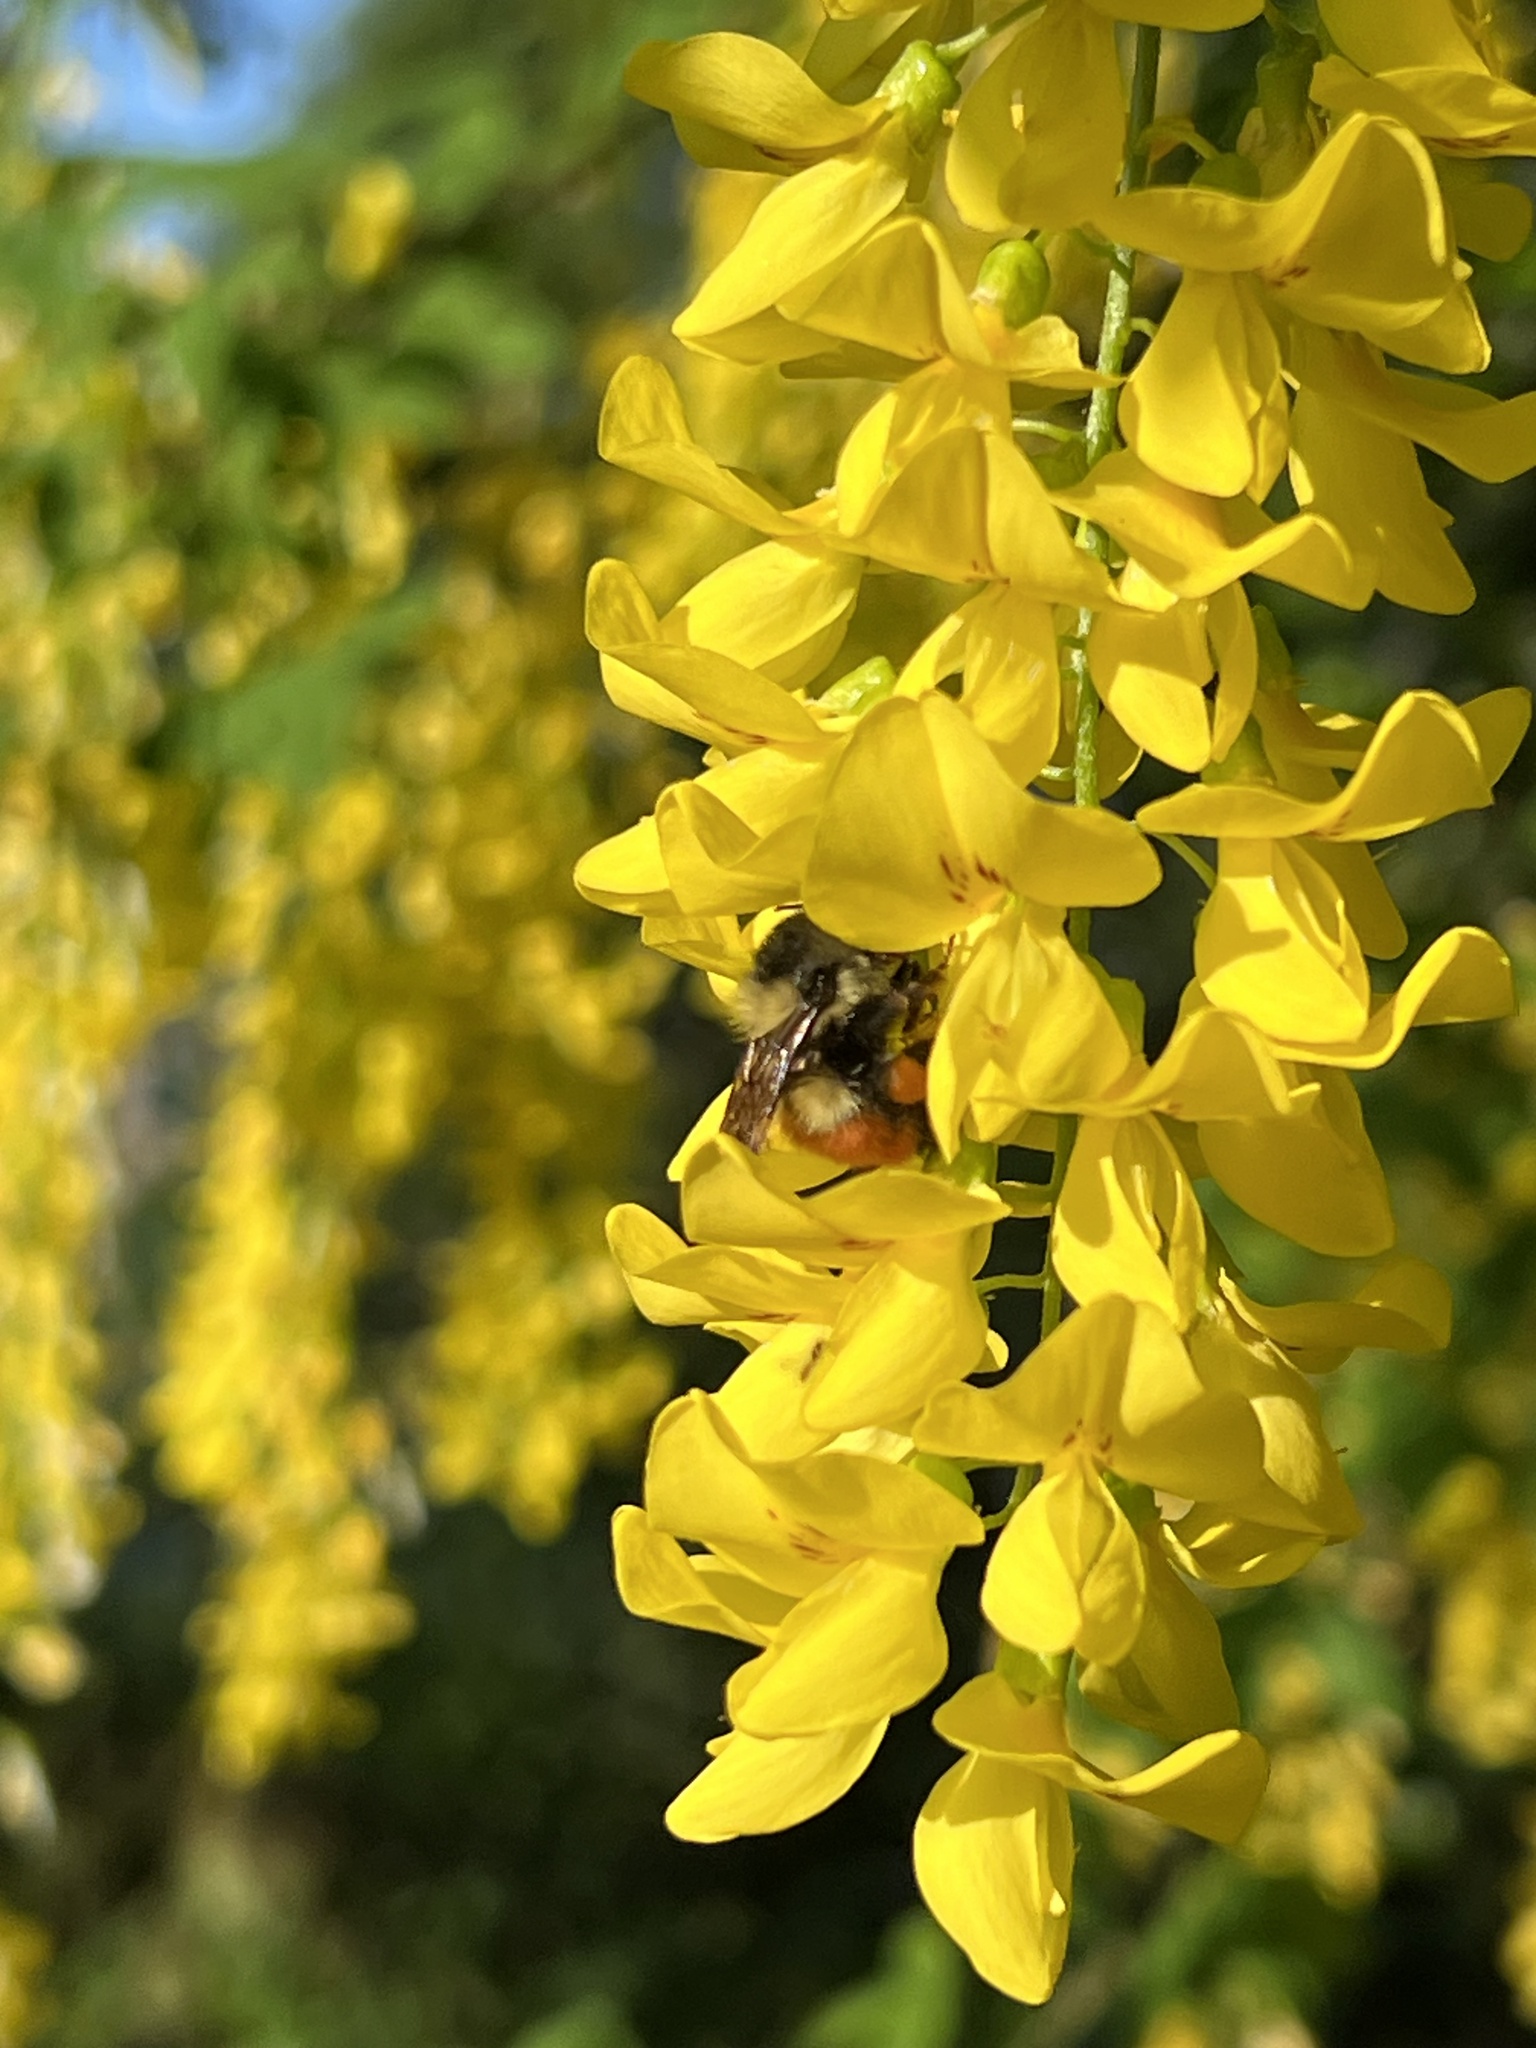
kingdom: Animalia
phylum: Arthropoda
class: Insecta
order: Hymenoptera
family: Apidae
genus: Bombus
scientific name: Bombus melanopygus
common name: Black tail bumble bee
